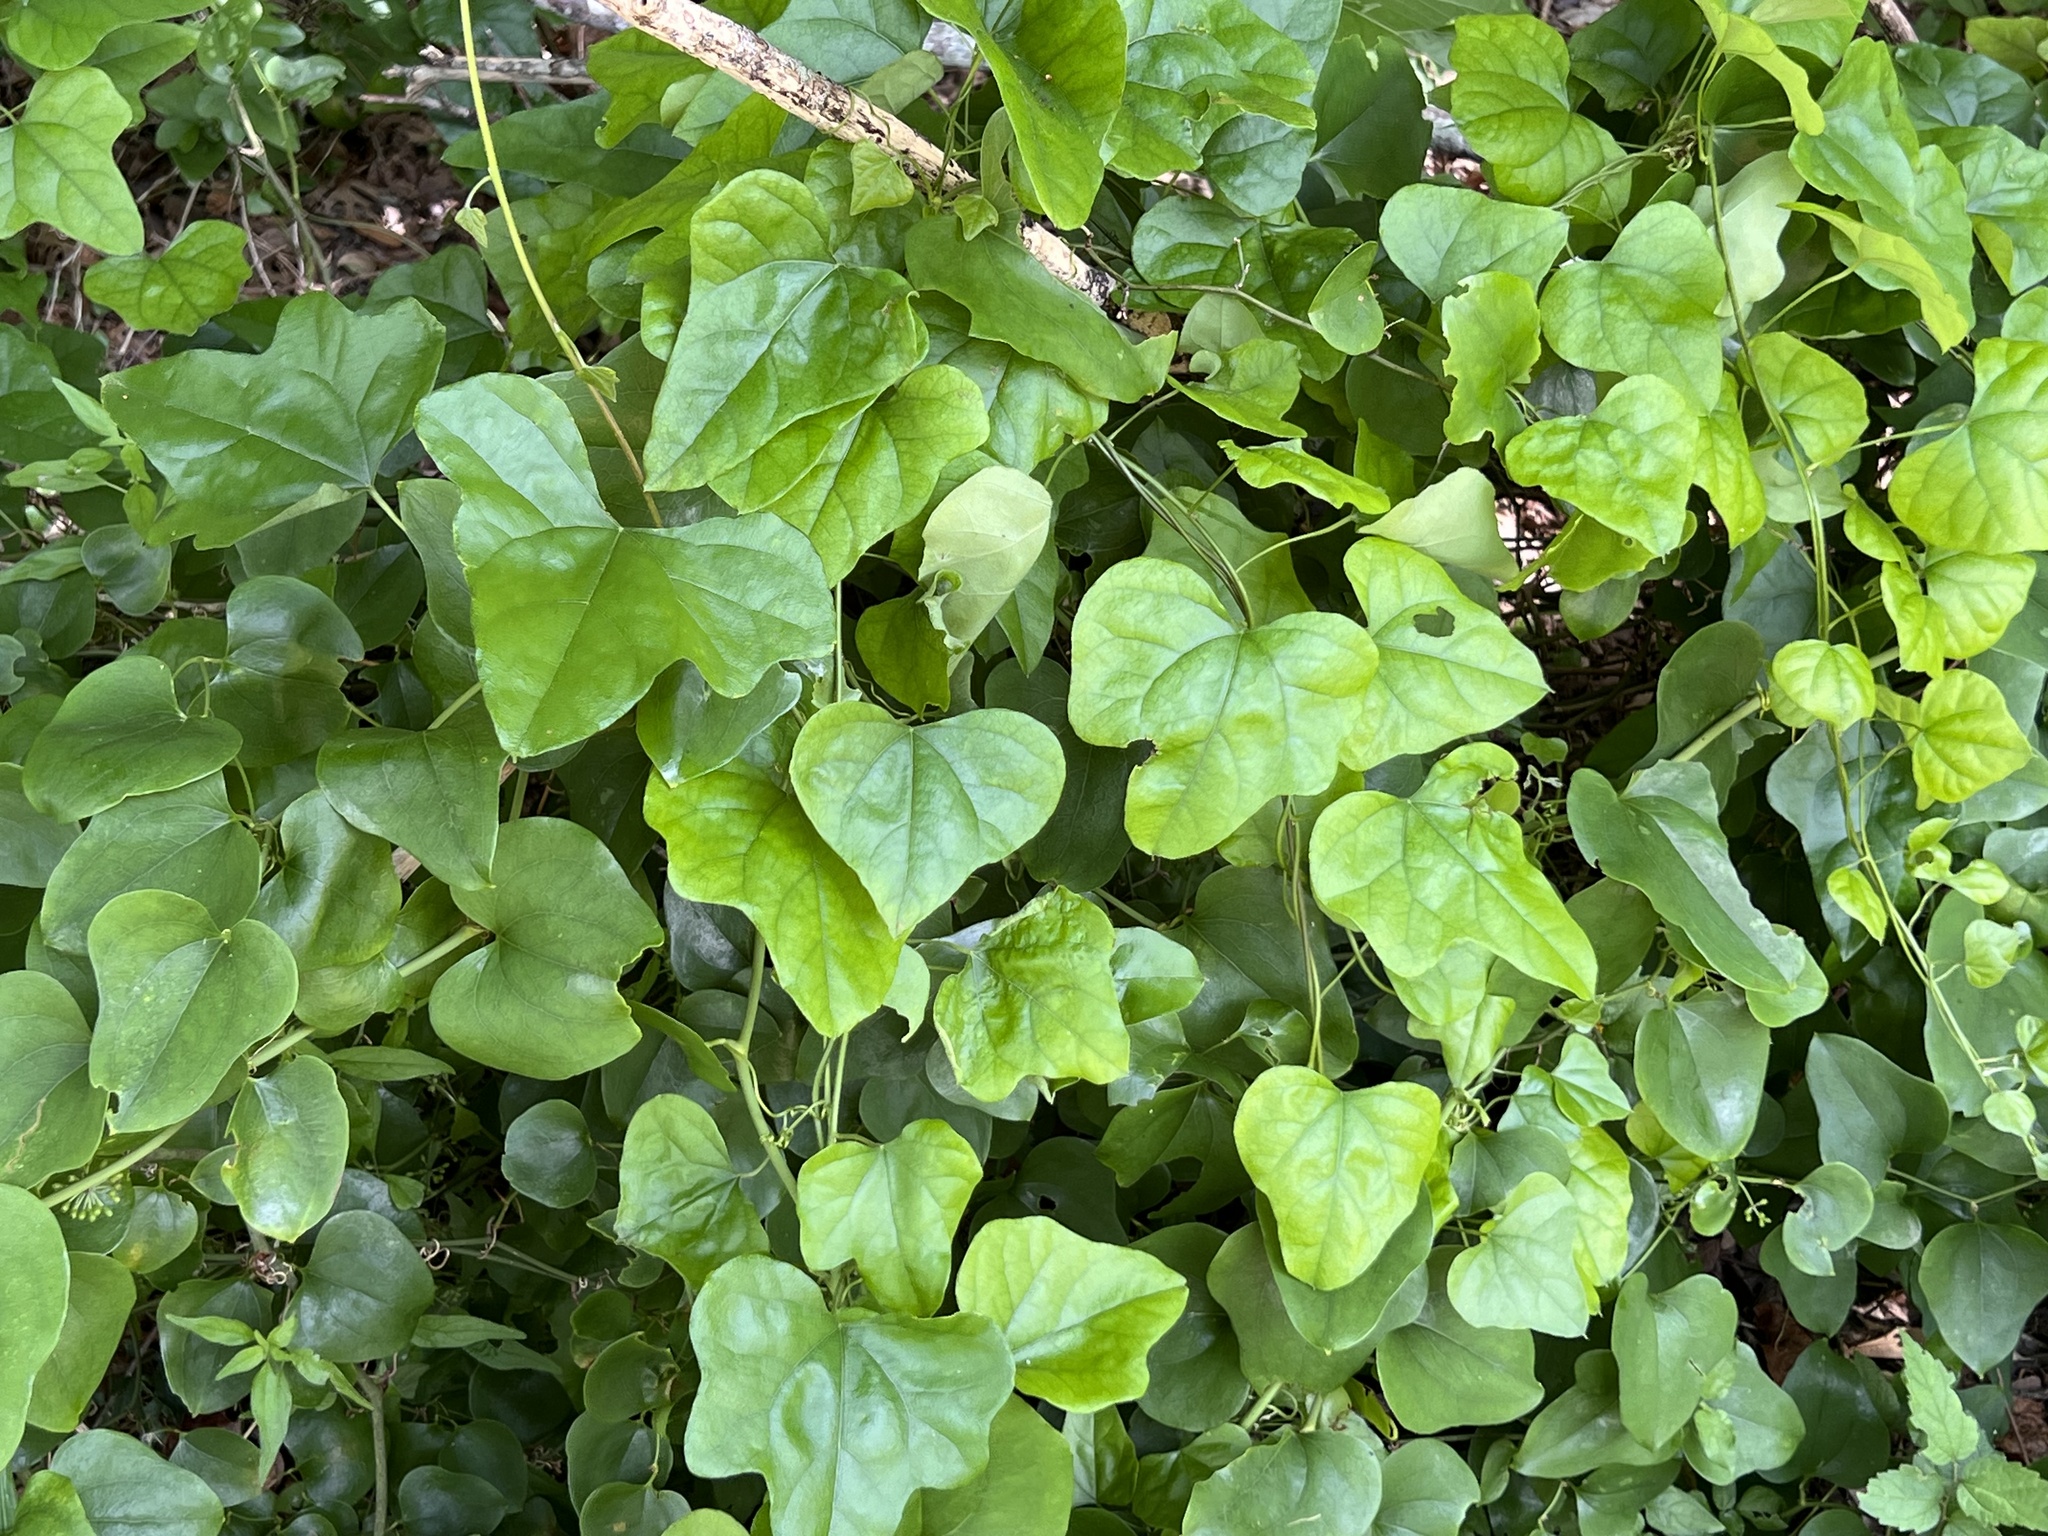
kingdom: Plantae
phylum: Tracheophyta
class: Magnoliopsida
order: Ranunculales
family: Menispermaceae
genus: Cocculus
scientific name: Cocculus carolinus
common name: Carolina moonseed
